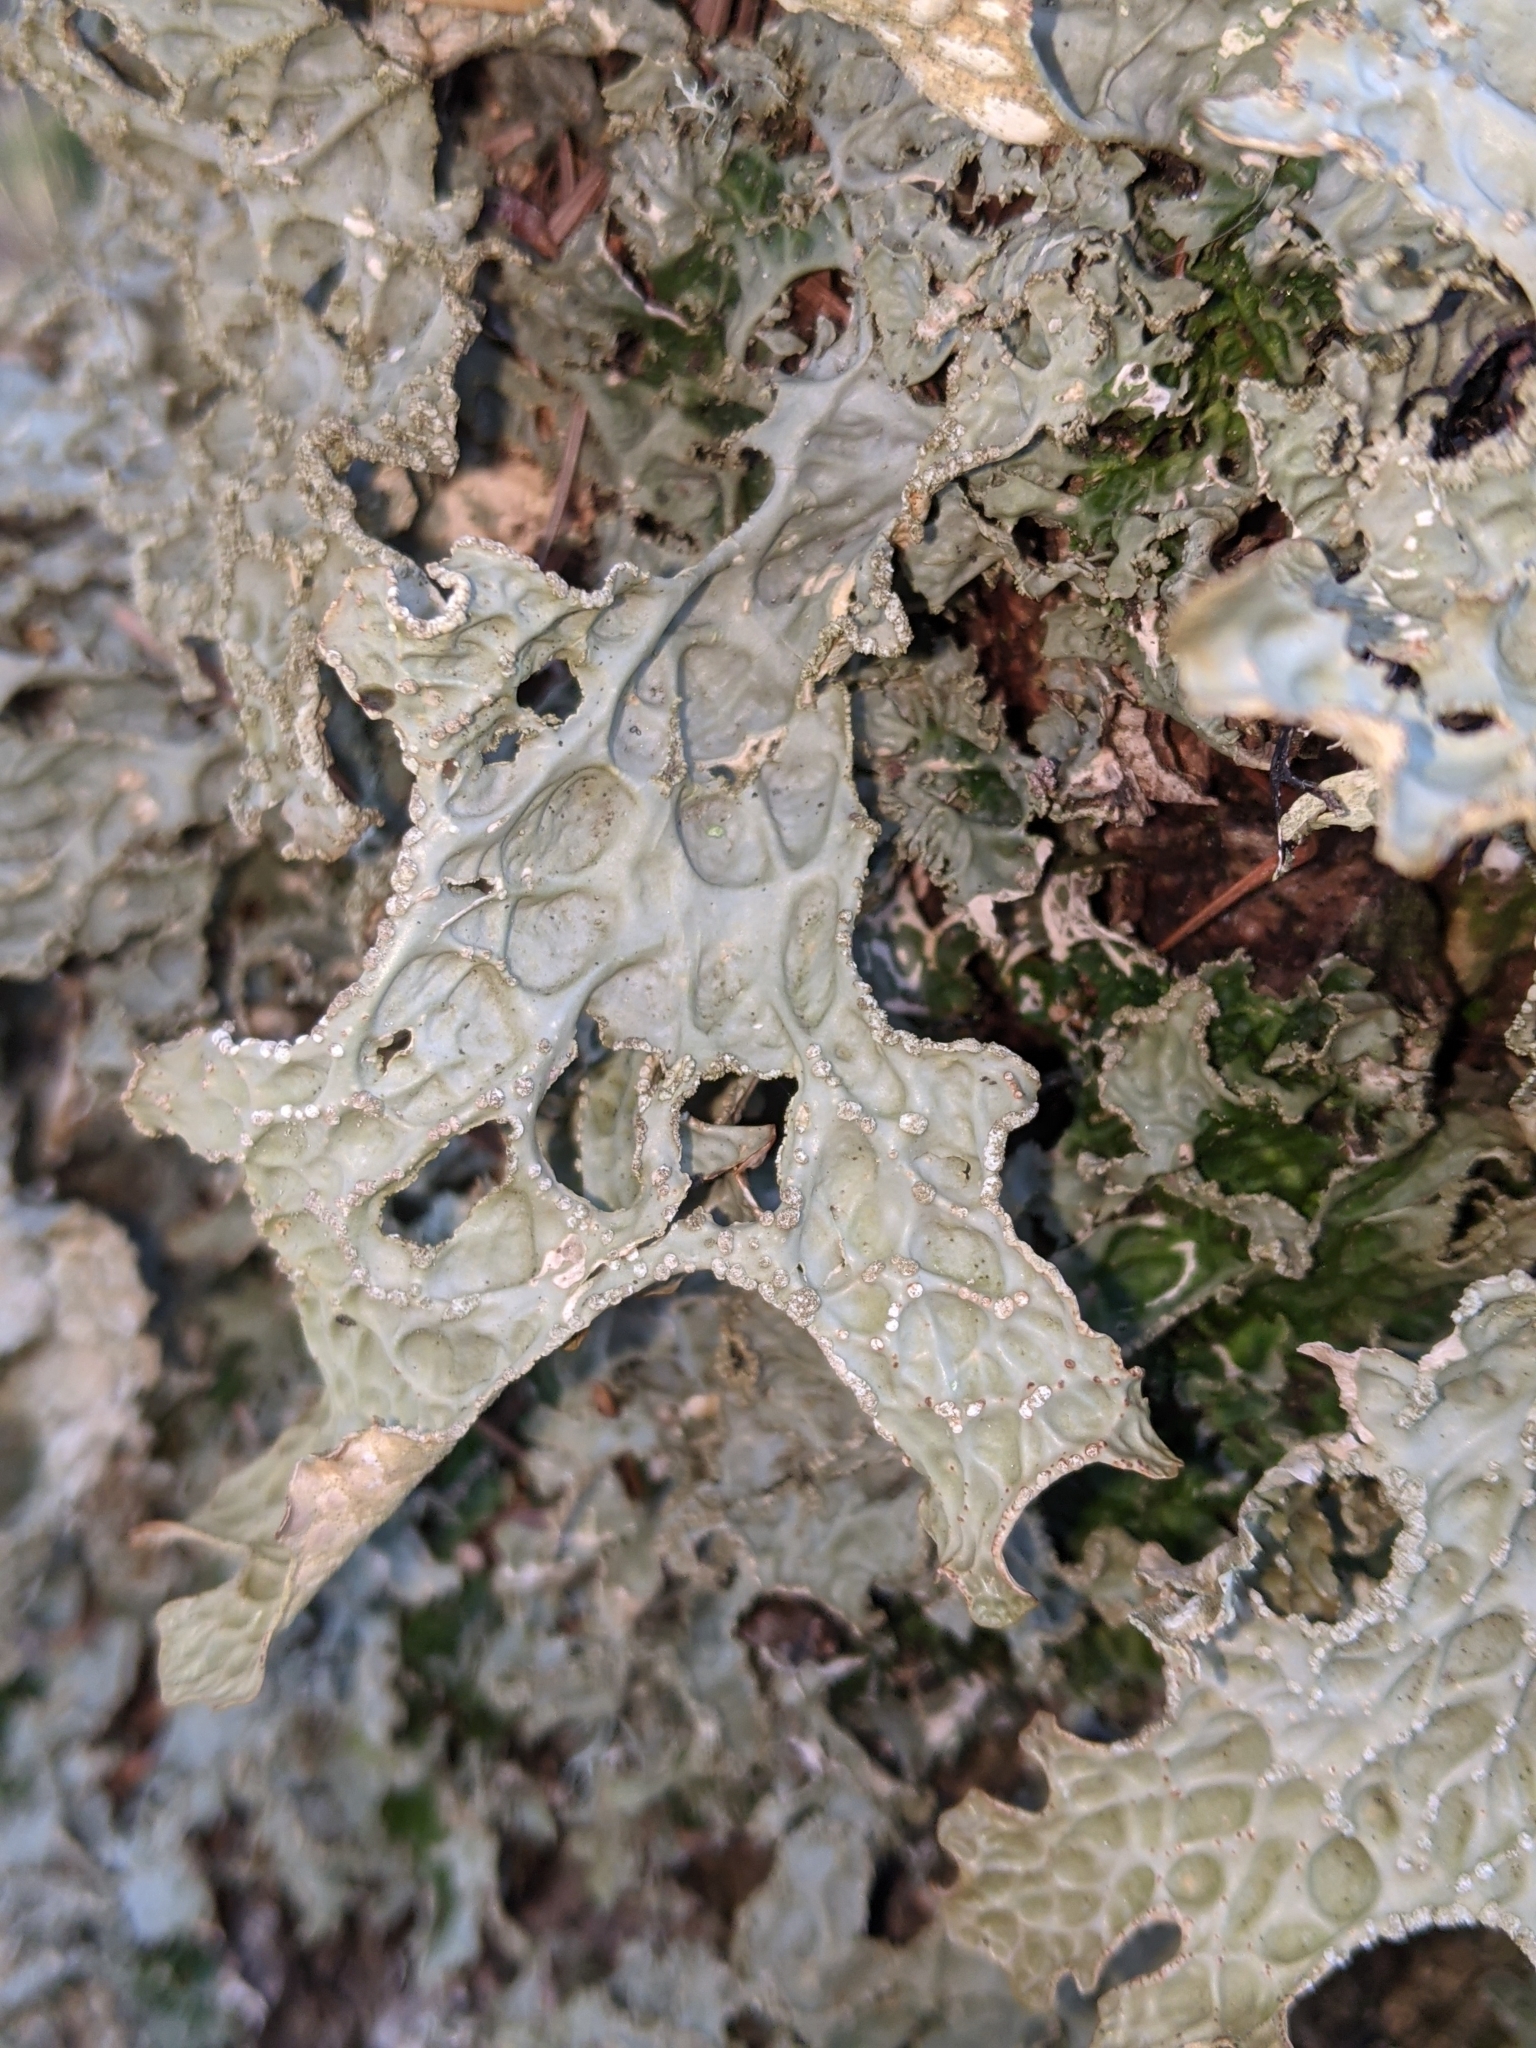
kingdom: Fungi
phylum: Ascomycota
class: Lecanoromycetes
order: Peltigerales
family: Lobariaceae
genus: Lobaria
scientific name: Lobaria pulmonaria
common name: Lungwort
